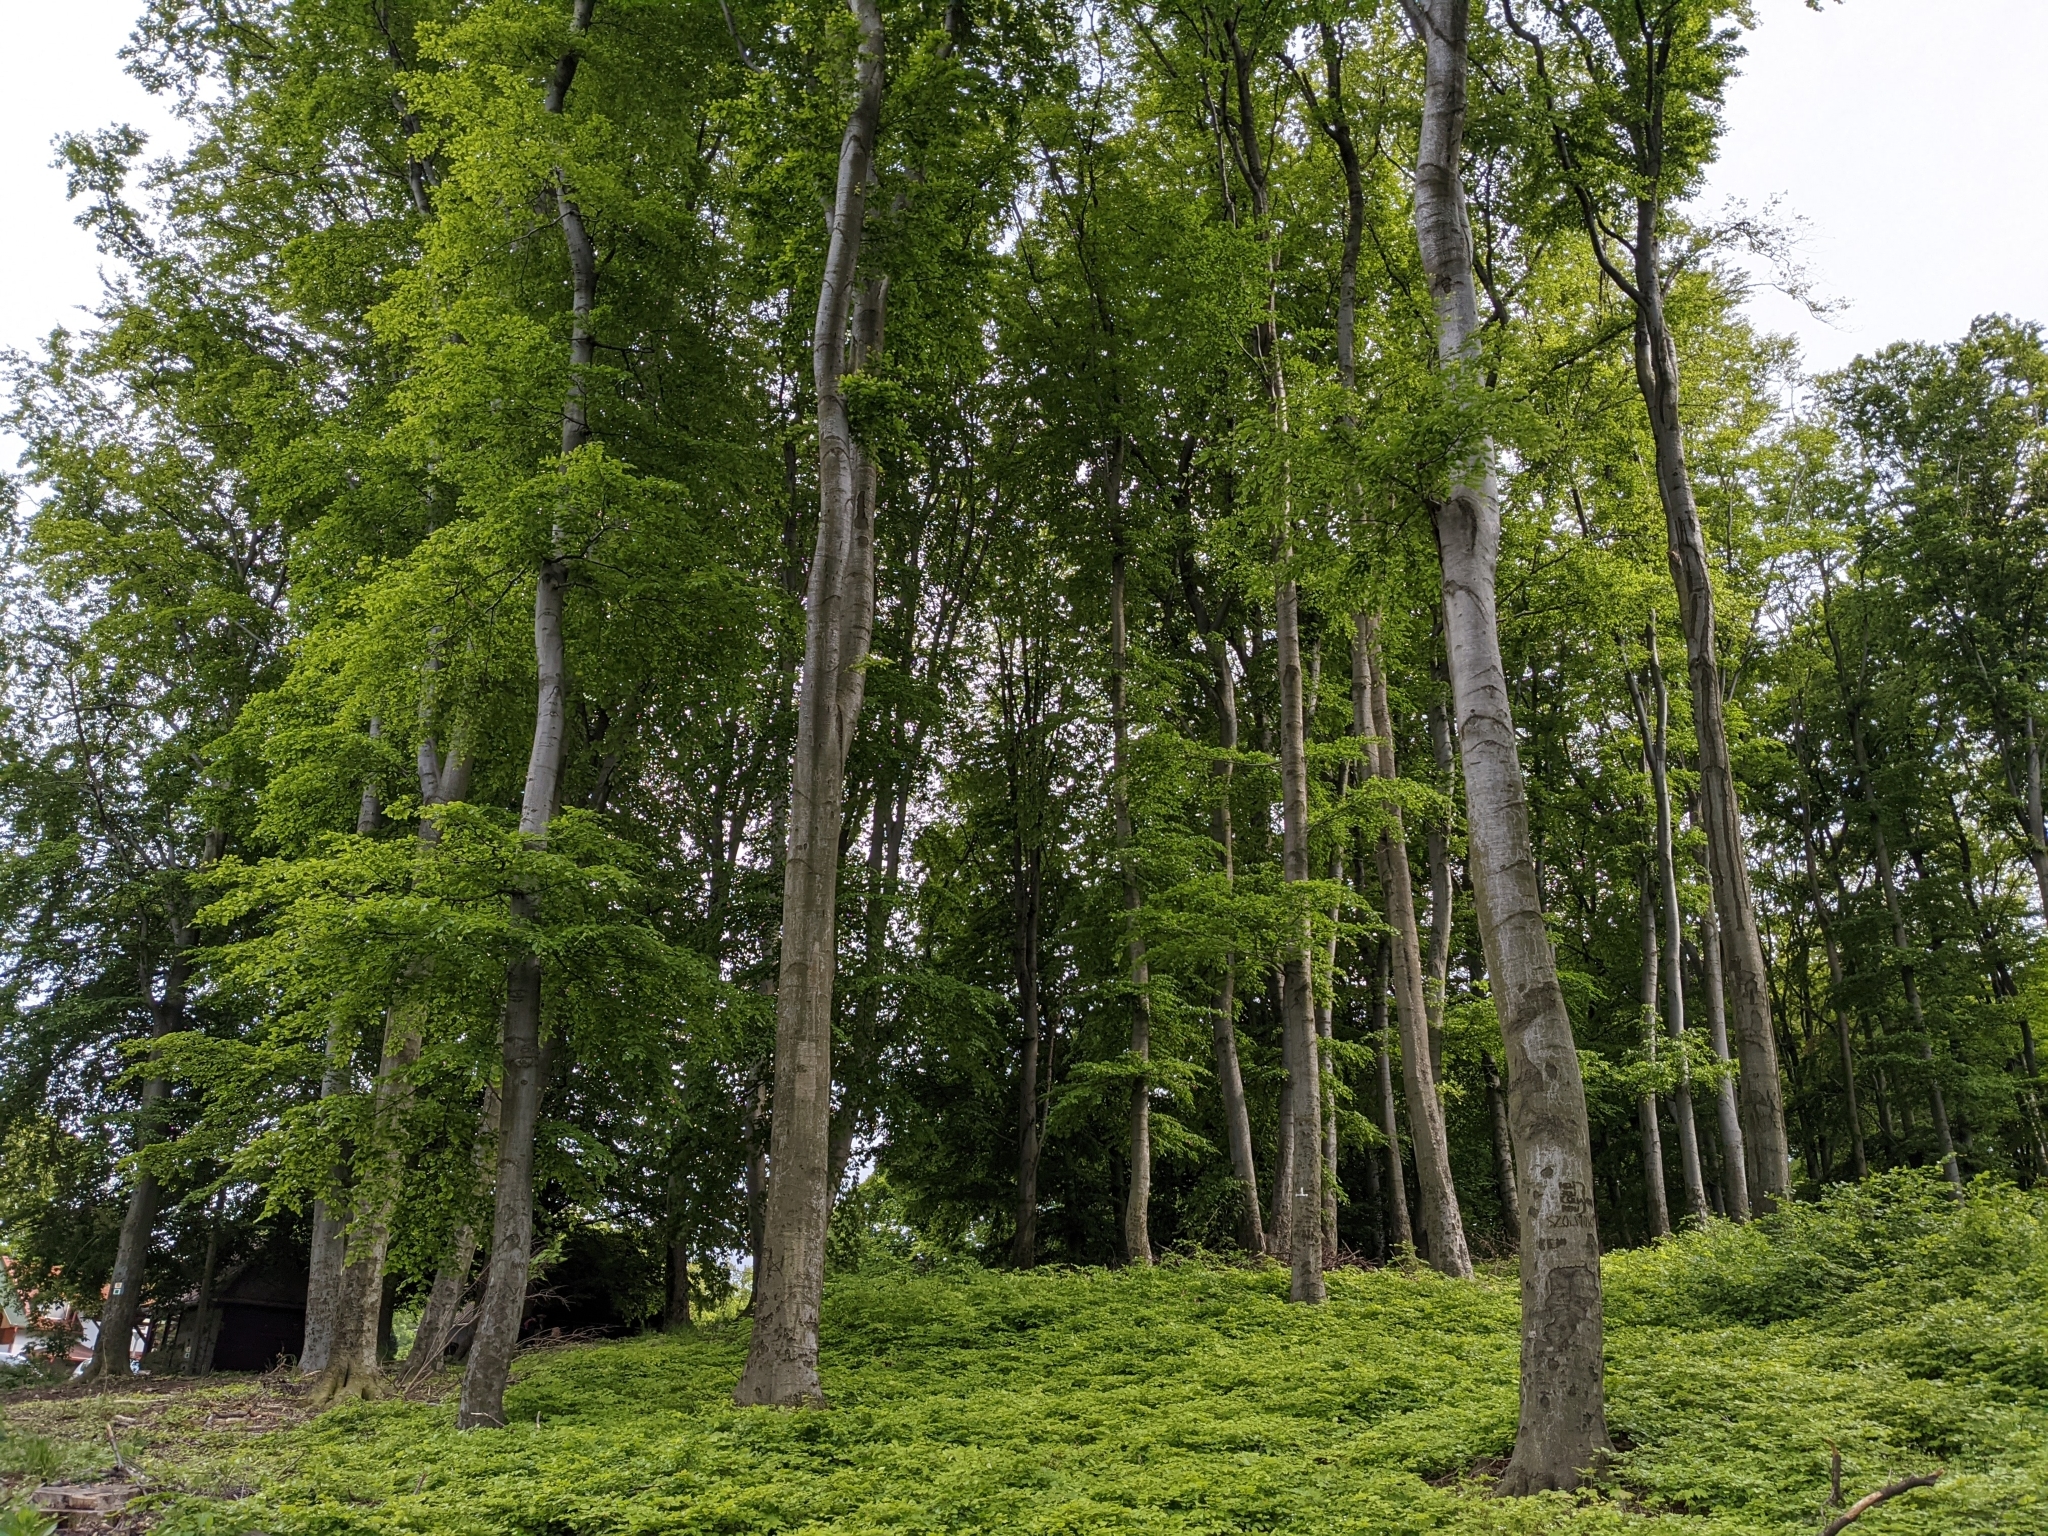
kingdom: Plantae
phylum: Tracheophyta
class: Magnoliopsida
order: Fagales
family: Fagaceae
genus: Fagus
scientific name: Fagus sylvatica
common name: Beech
